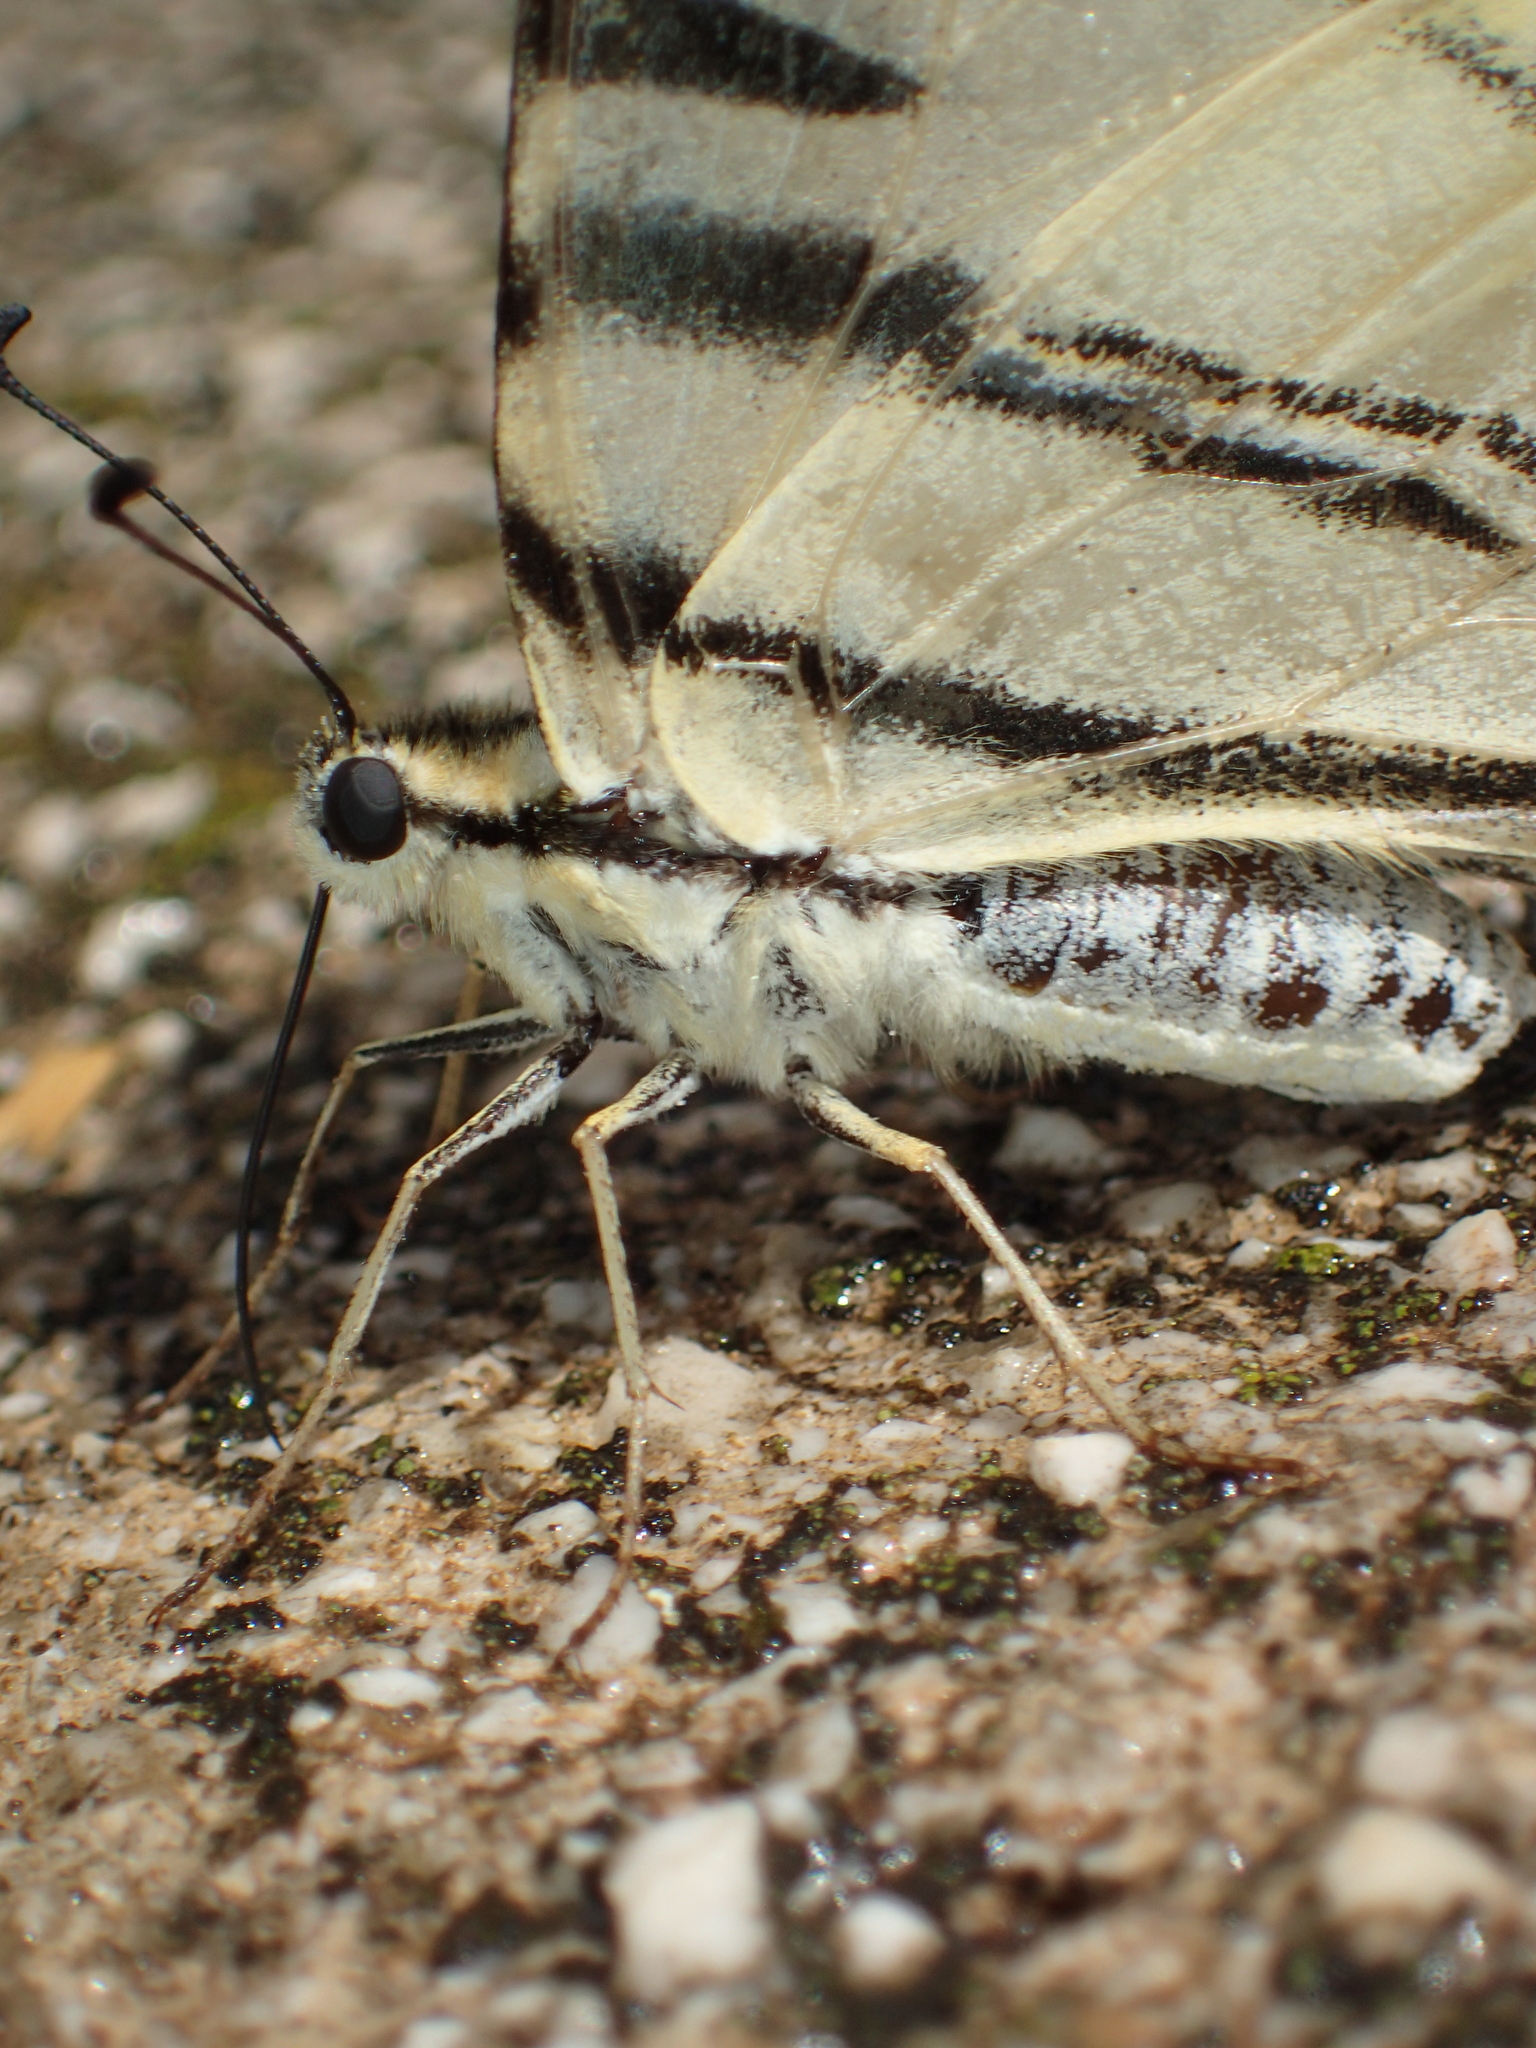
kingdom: Animalia
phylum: Arthropoda
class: Insecta
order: Lepidoptera
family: Papilionidae
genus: Iphiclides
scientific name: Iphiclides podalirius
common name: Scarce swallowtail
